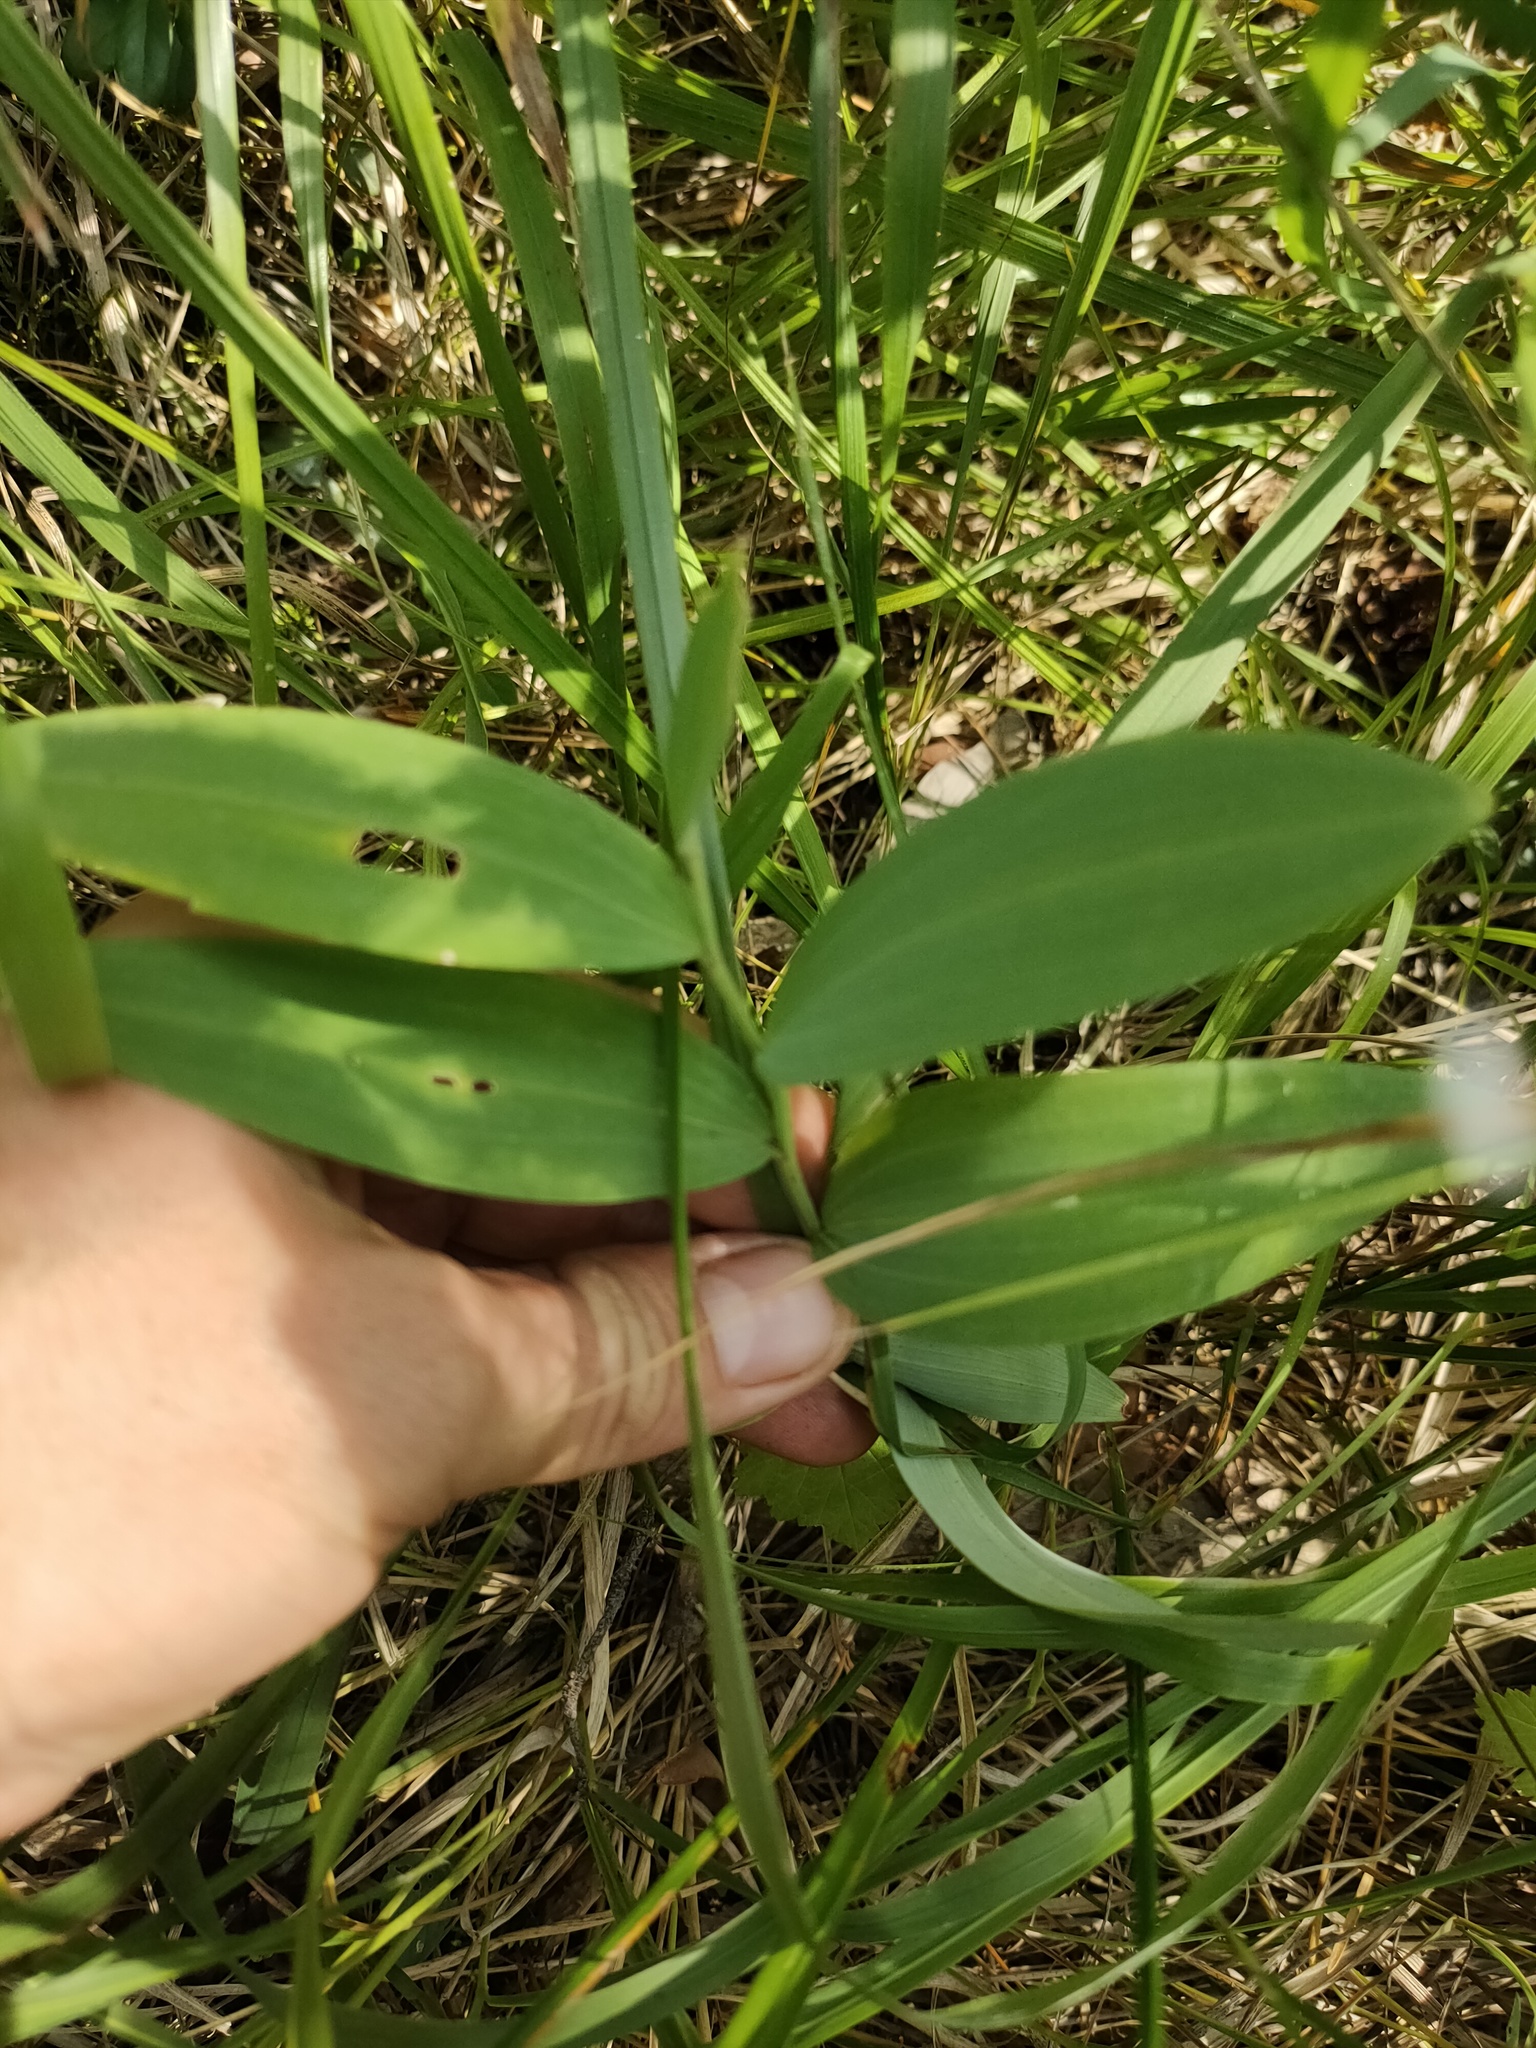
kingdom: Plantae
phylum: Tracheophyta
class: Liliopsida
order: Asparagales
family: Asparagaceae
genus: Polygonatum
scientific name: Polygonatum odoratum
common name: Angular solomon's-seal
